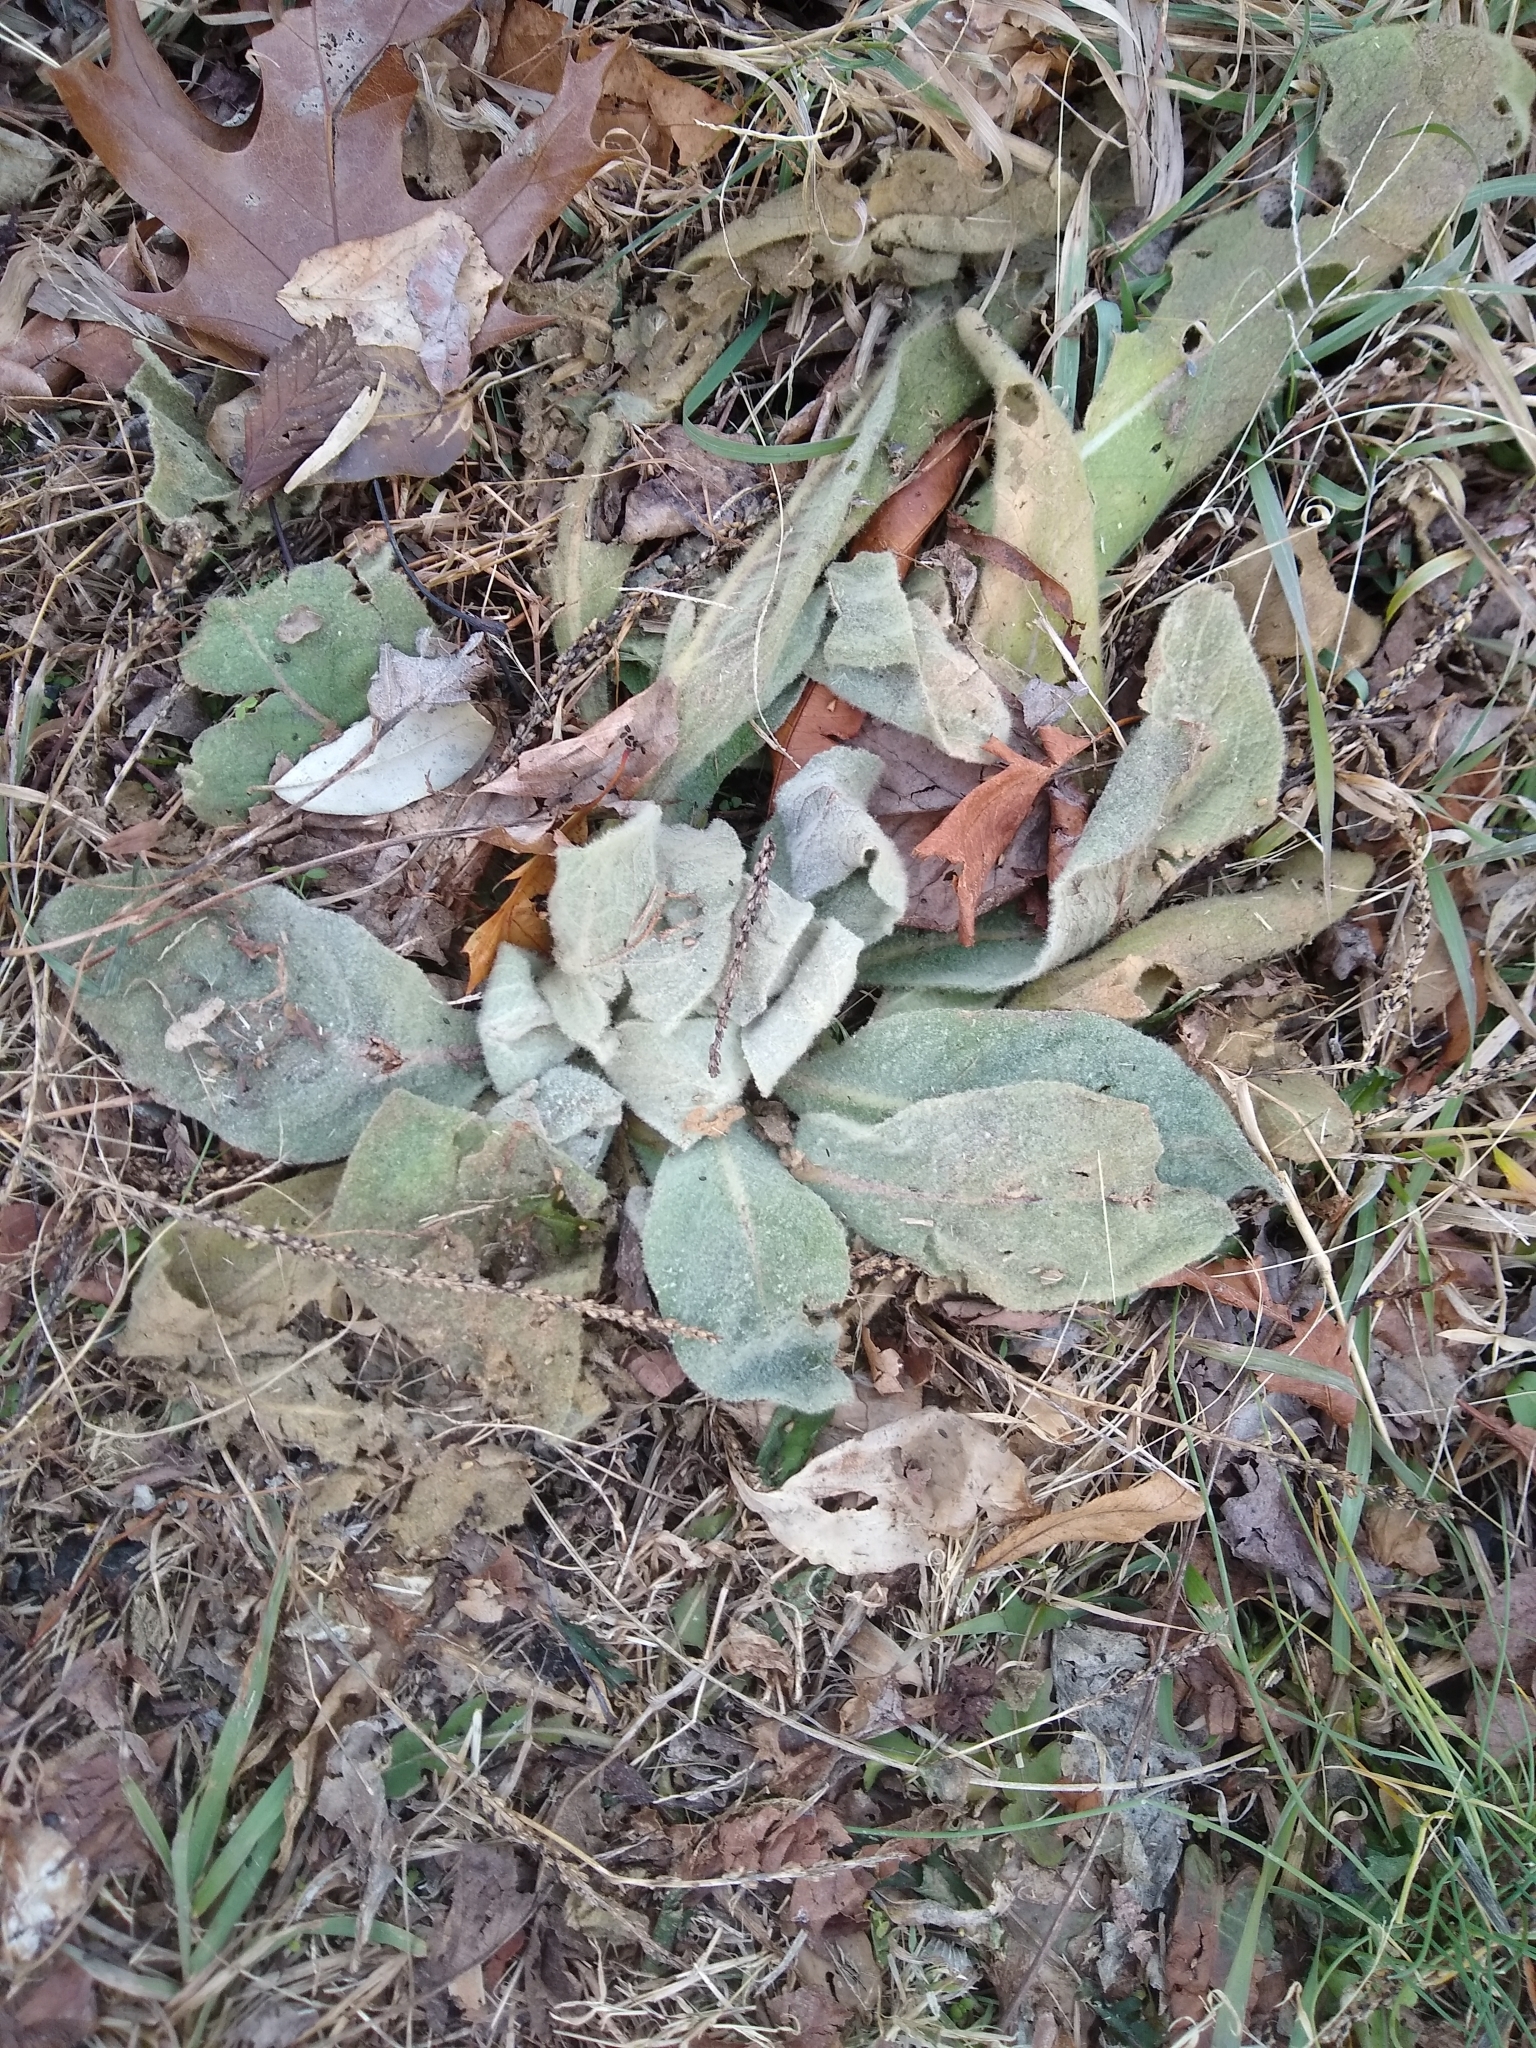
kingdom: Plantae
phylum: Tracheophyta
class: Magnoliopsida
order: Lamiales
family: Scrophulariaceae
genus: Verbascum
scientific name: Verbascum thapsus
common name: Common mullein
